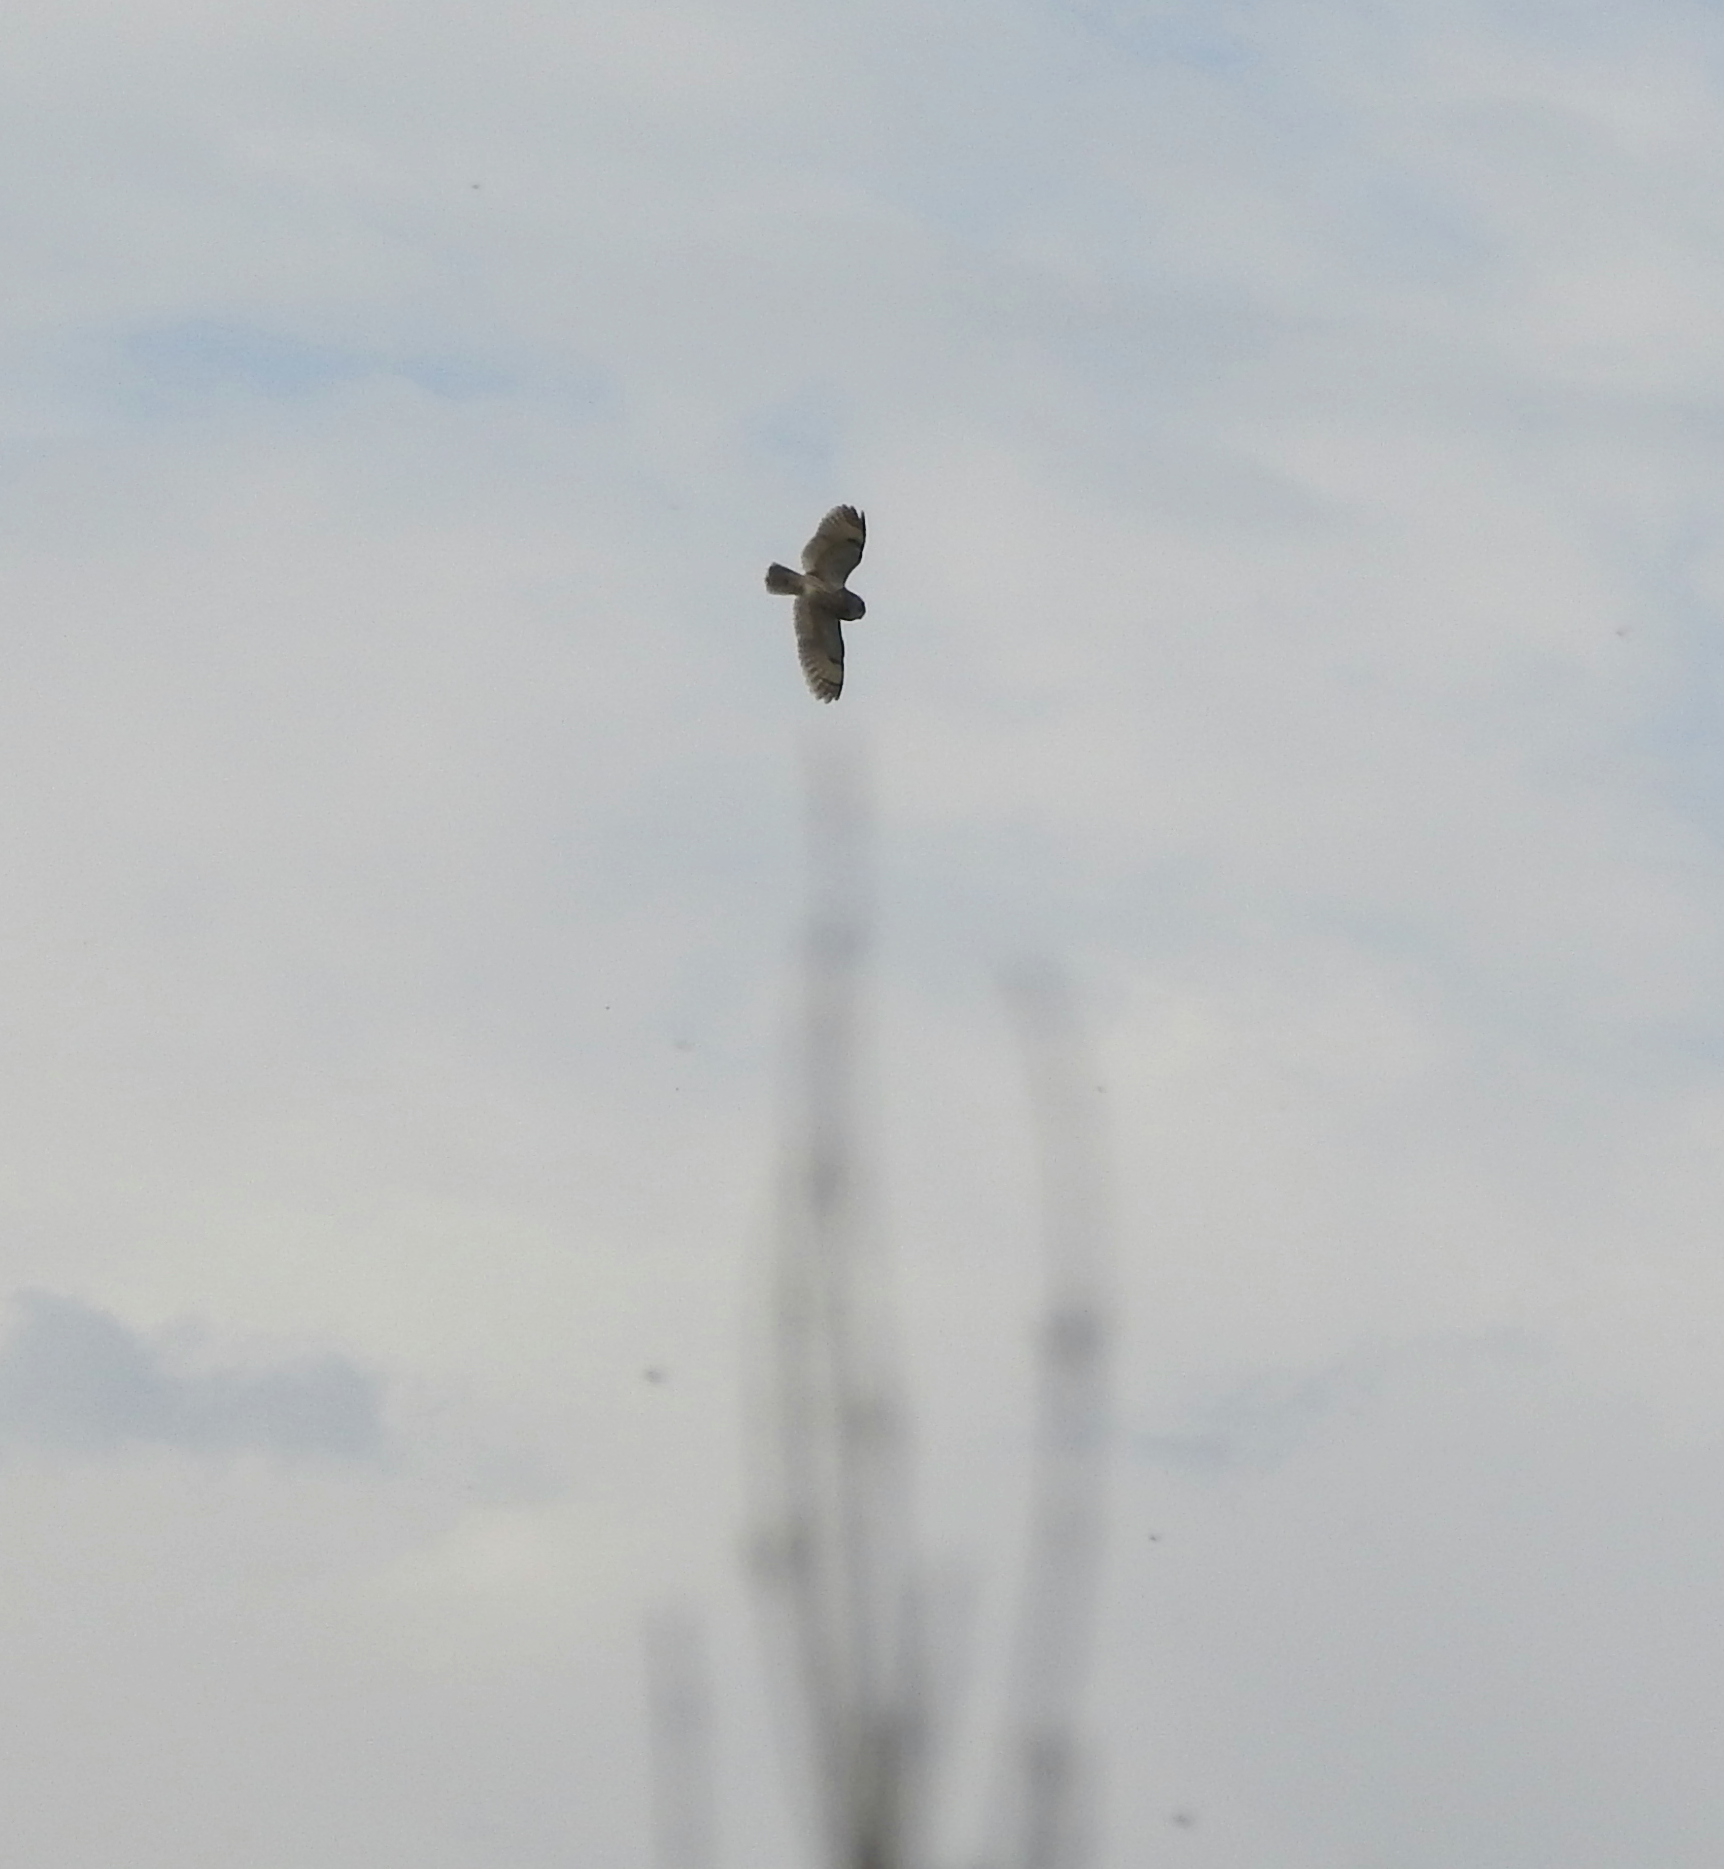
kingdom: Animalia
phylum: Chordata
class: Aves
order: Strigiformes
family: Strigidae
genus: Asio
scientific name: Asio otus
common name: Long-eared owl
